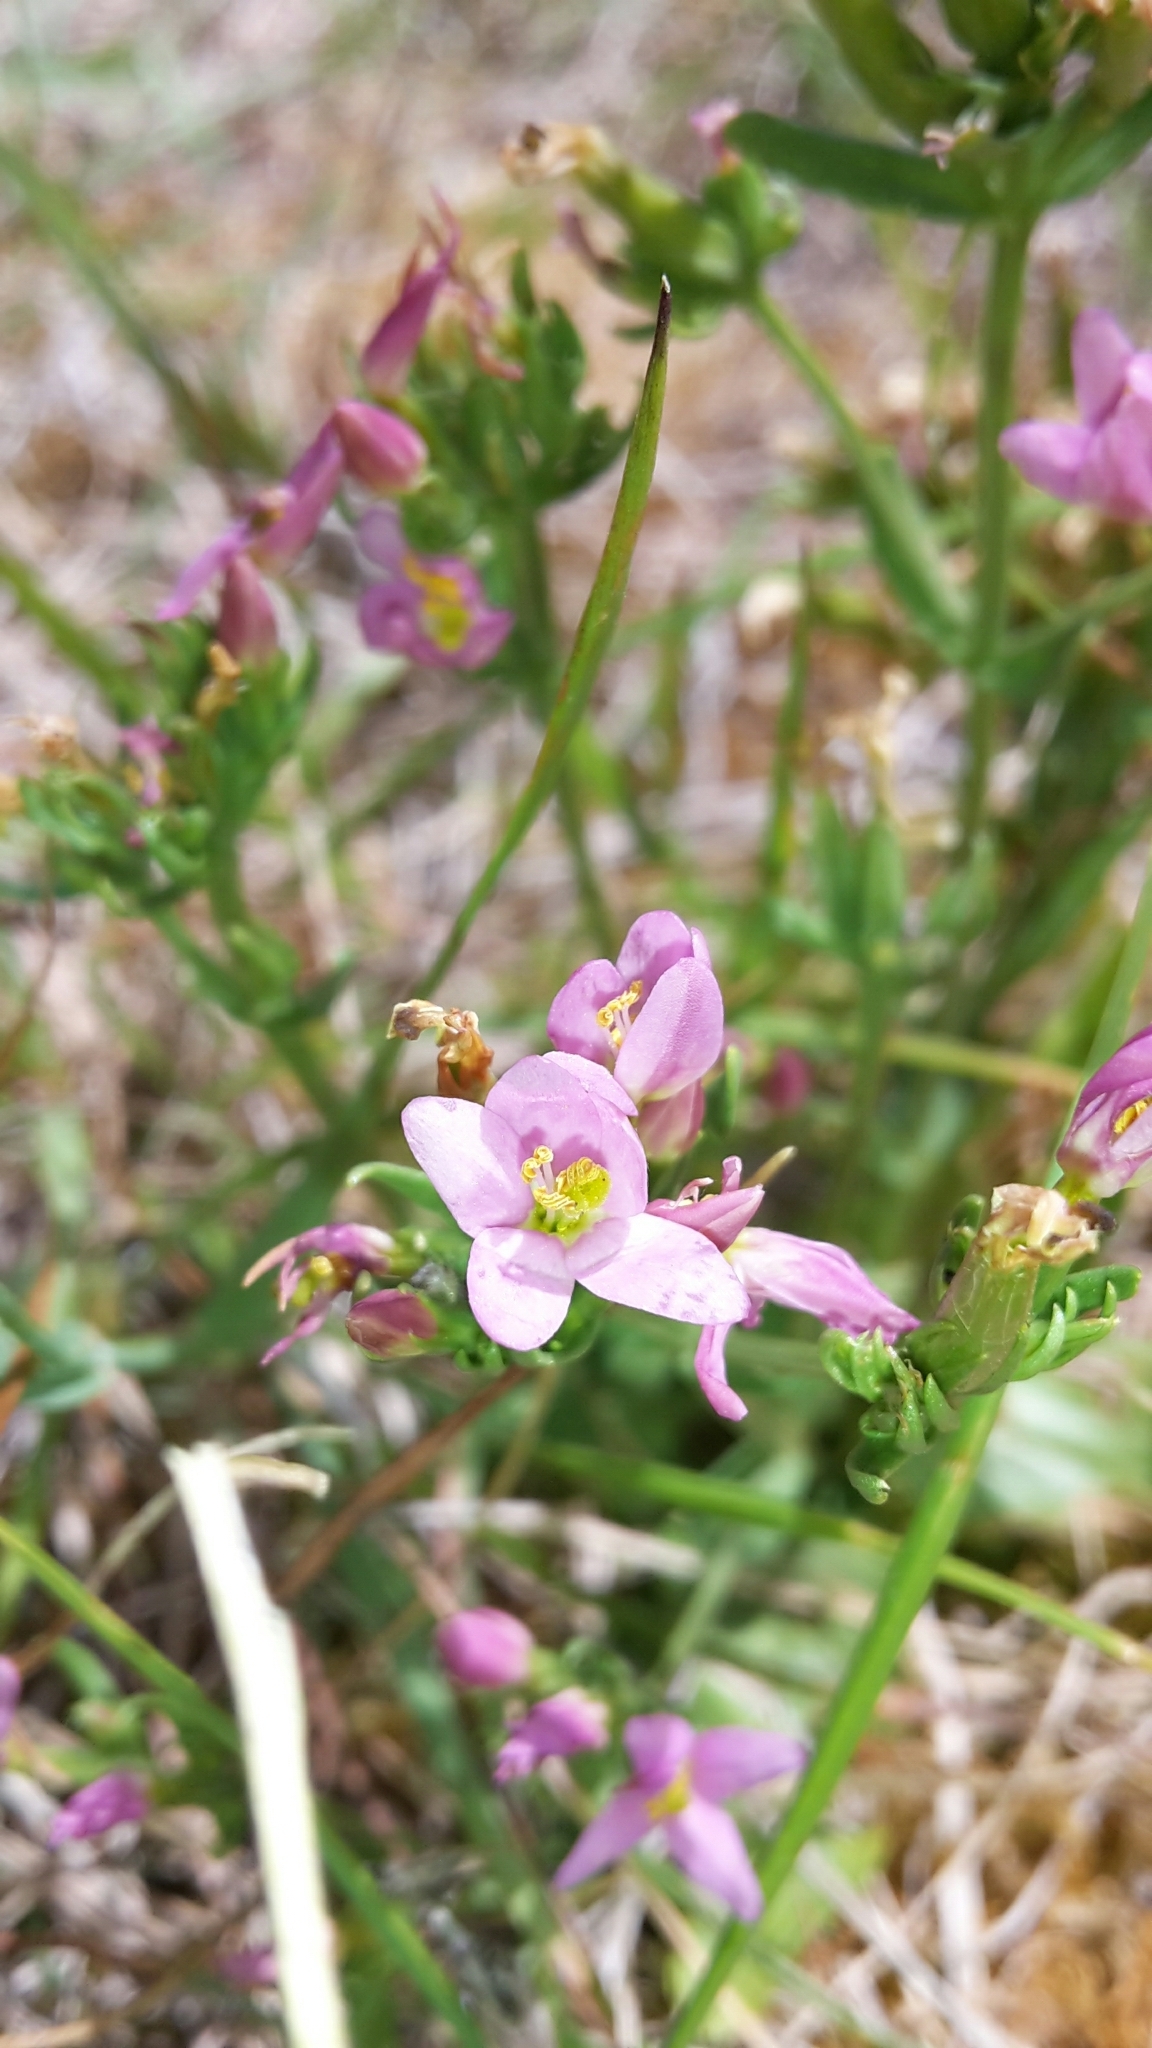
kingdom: Plantae
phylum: Tracheophyta
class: Magnoliopsida
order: Gentianales
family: Gentianaceae
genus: Centaurium
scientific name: Centaurium erythraea
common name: Common centaury
